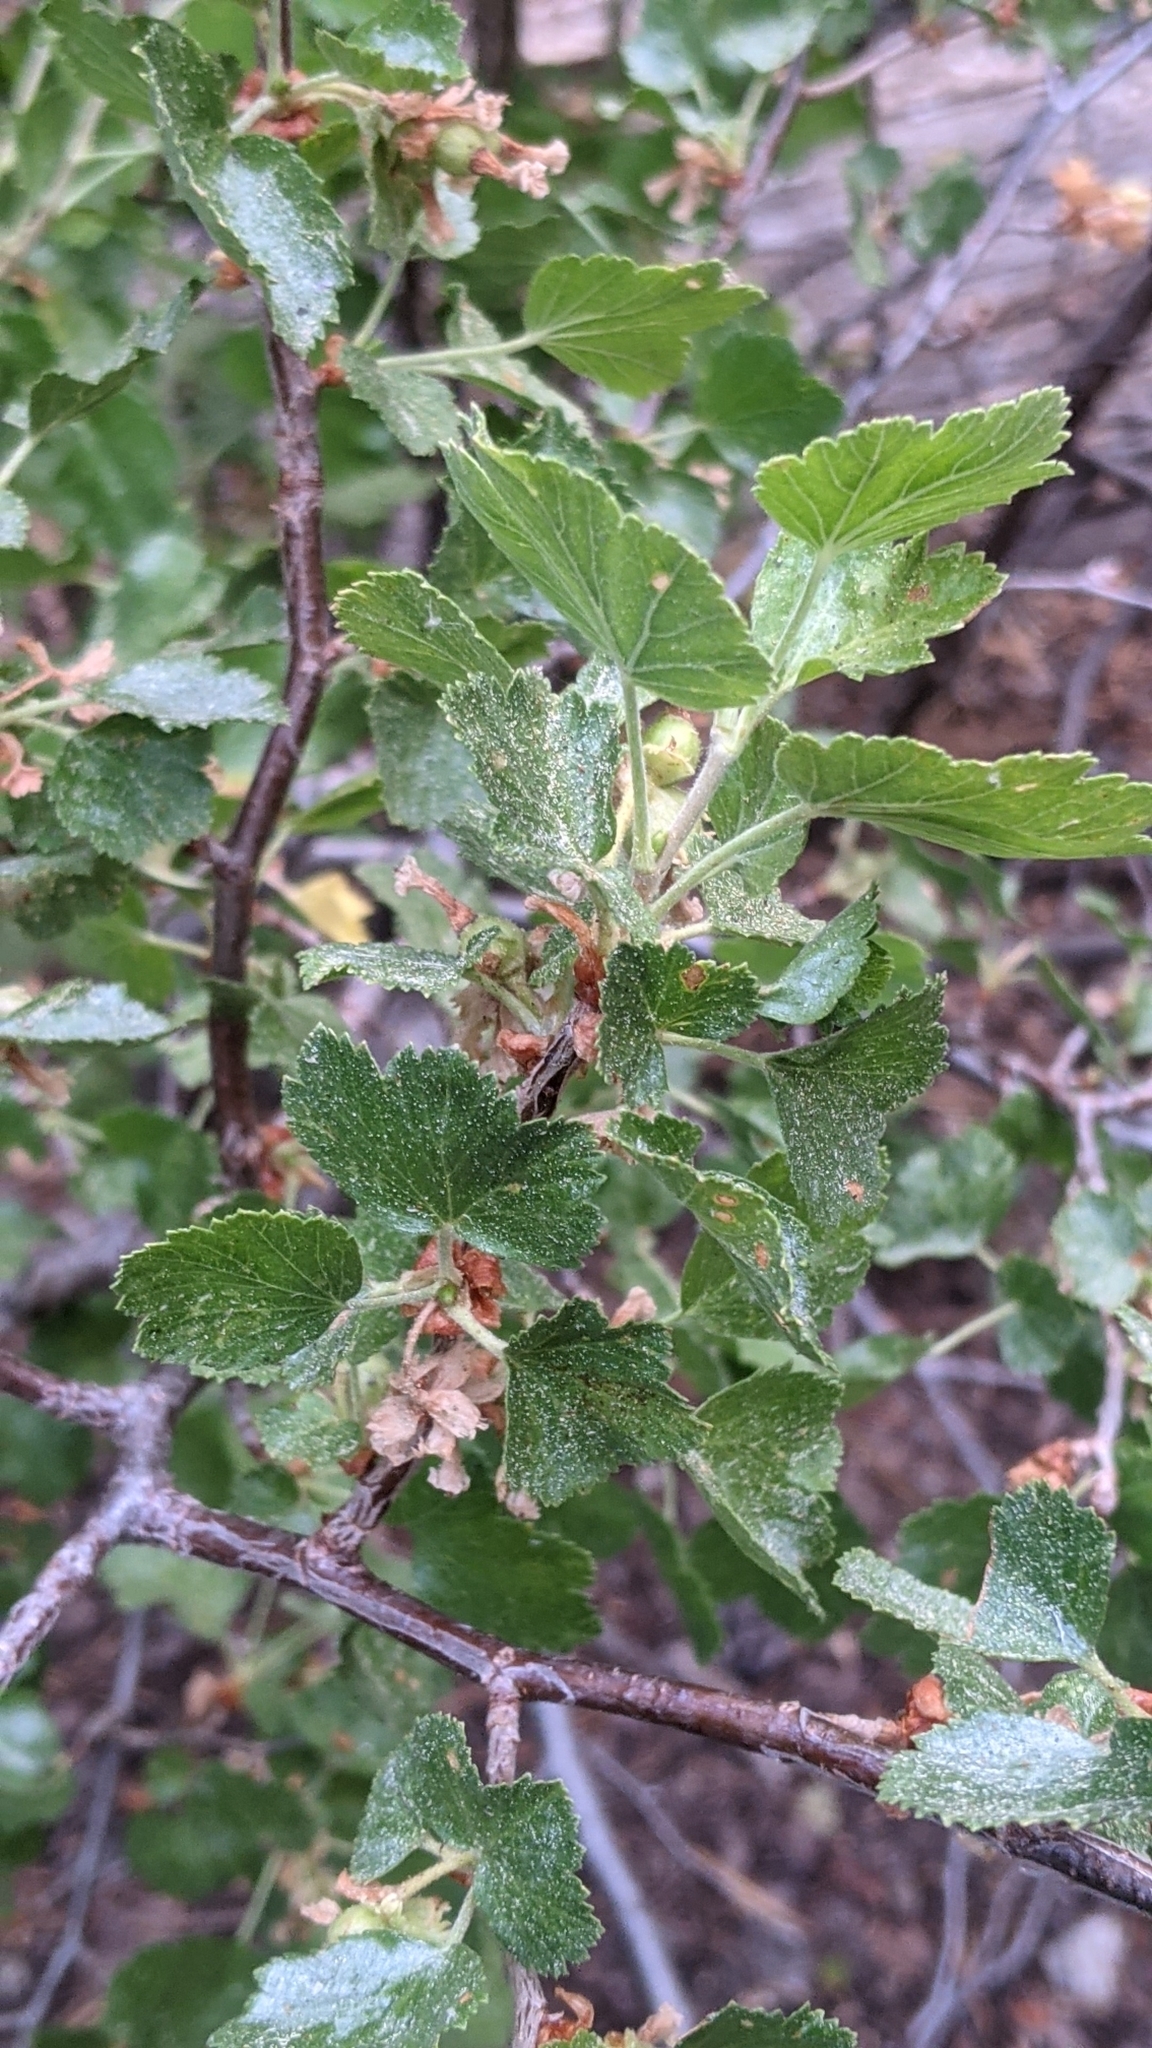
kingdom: Plantae
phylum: Tracheophyta
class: Magnoliopsida
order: Saxifragales
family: Grossulariaceae
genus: Ribes
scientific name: Ribes cereum
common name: Wax currant
